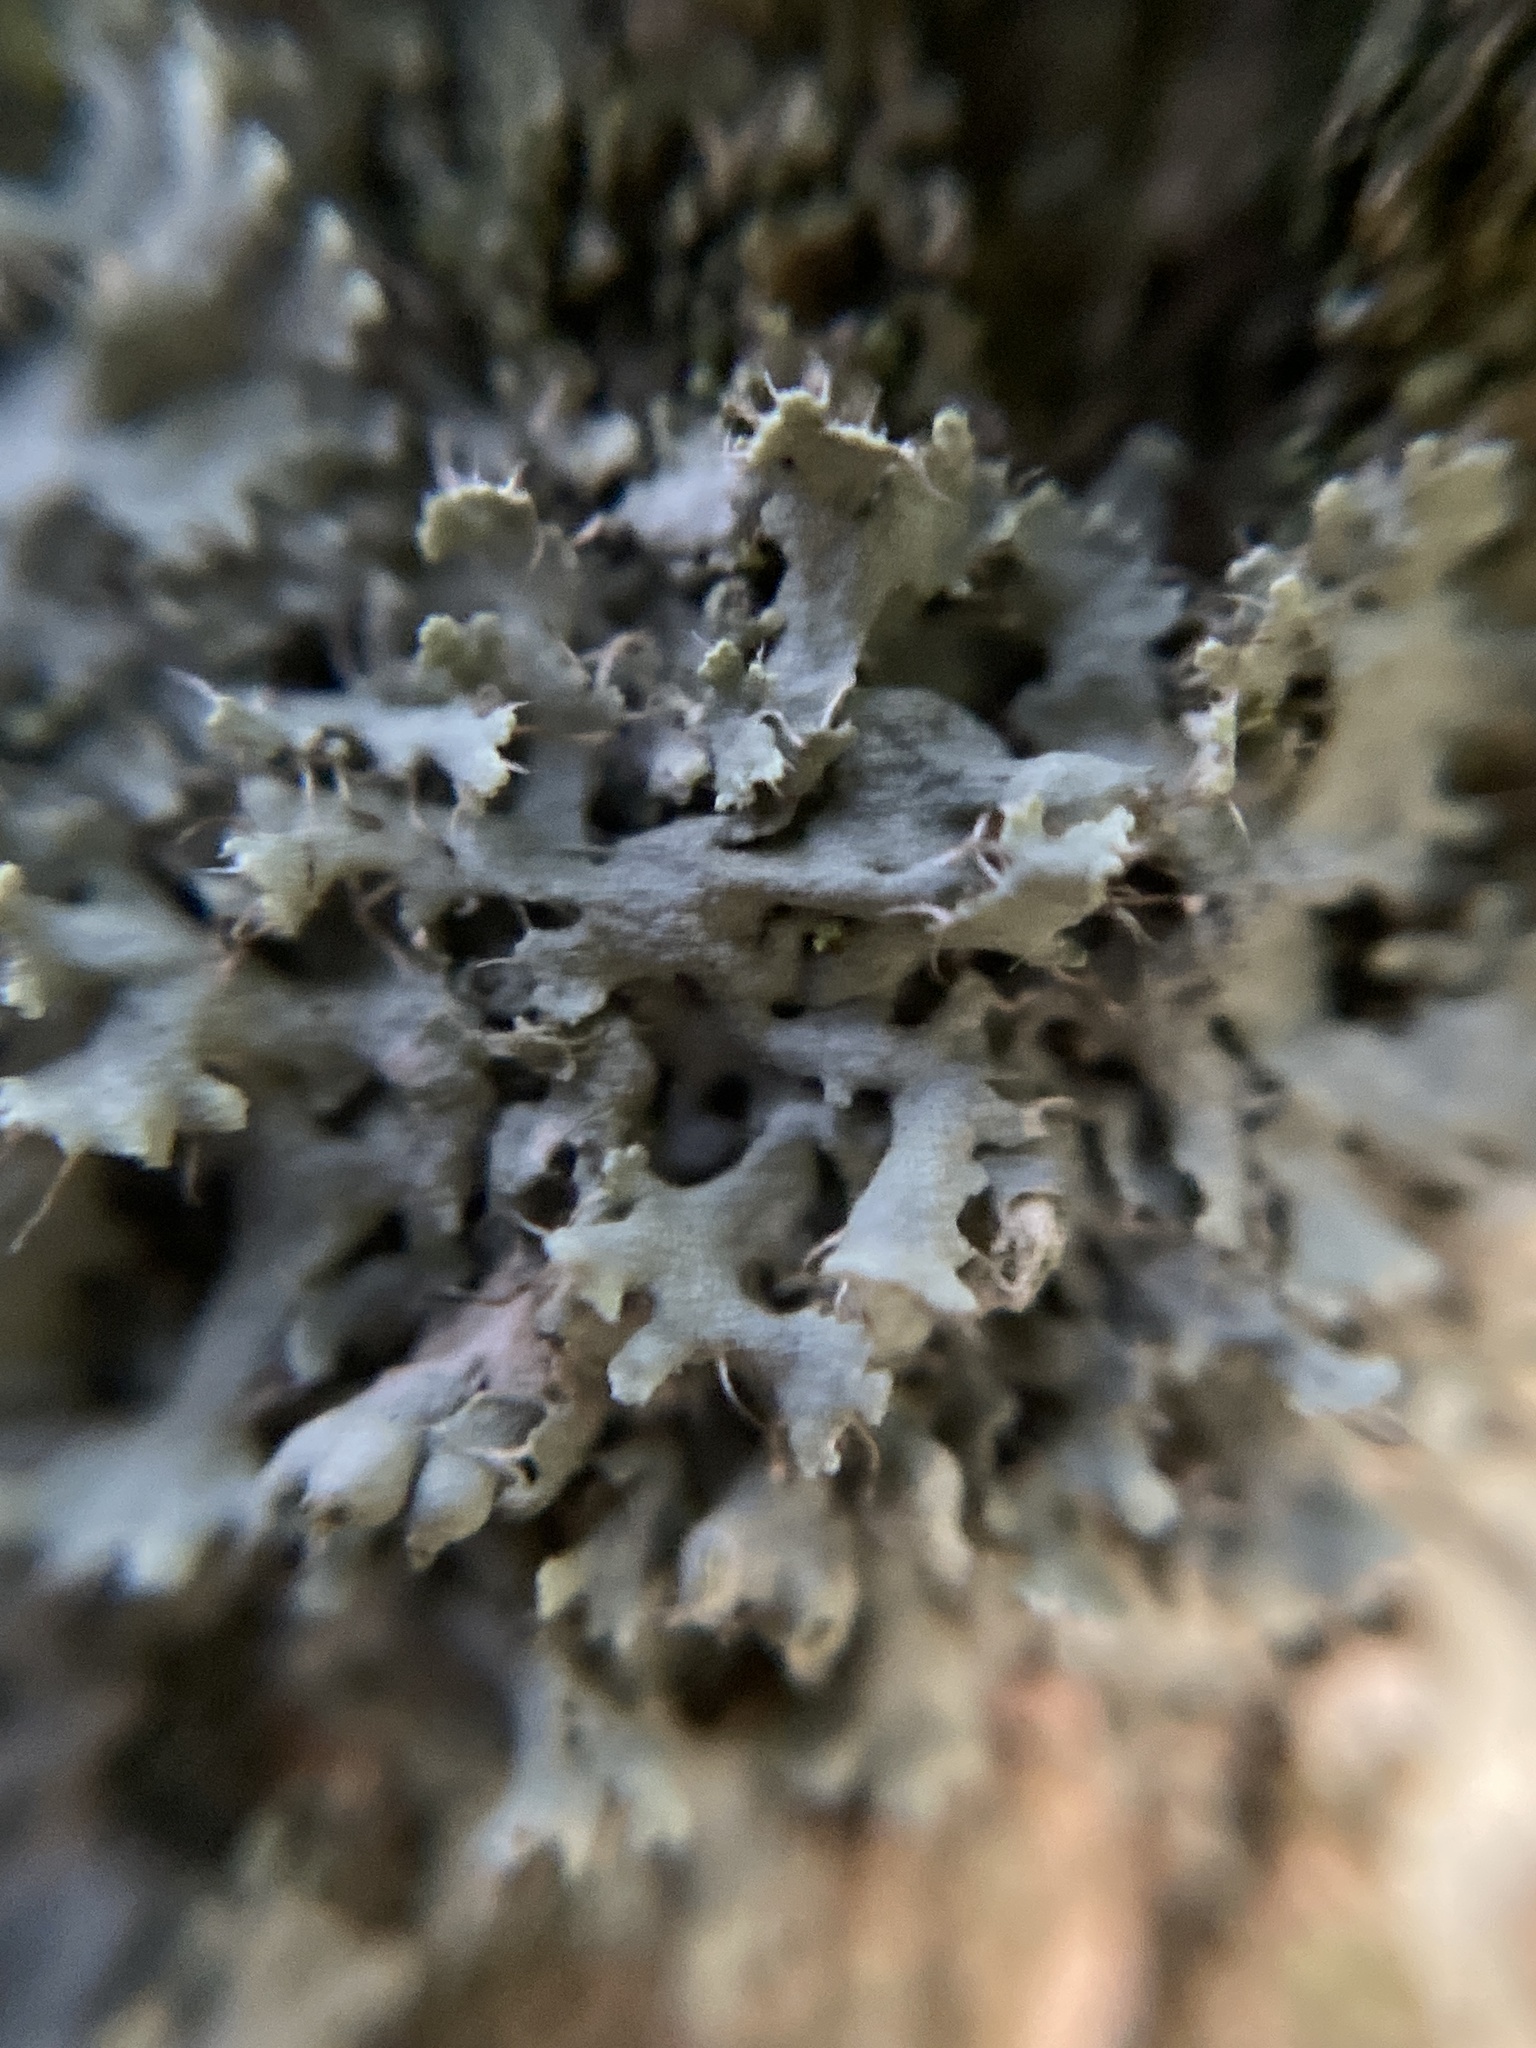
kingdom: Fungi
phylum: Ascomycota
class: Lecanoromycetes
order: Caliciales
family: Physciaceae
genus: Physcia
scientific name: Physcia adscendens
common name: Hooded rosette lichen
